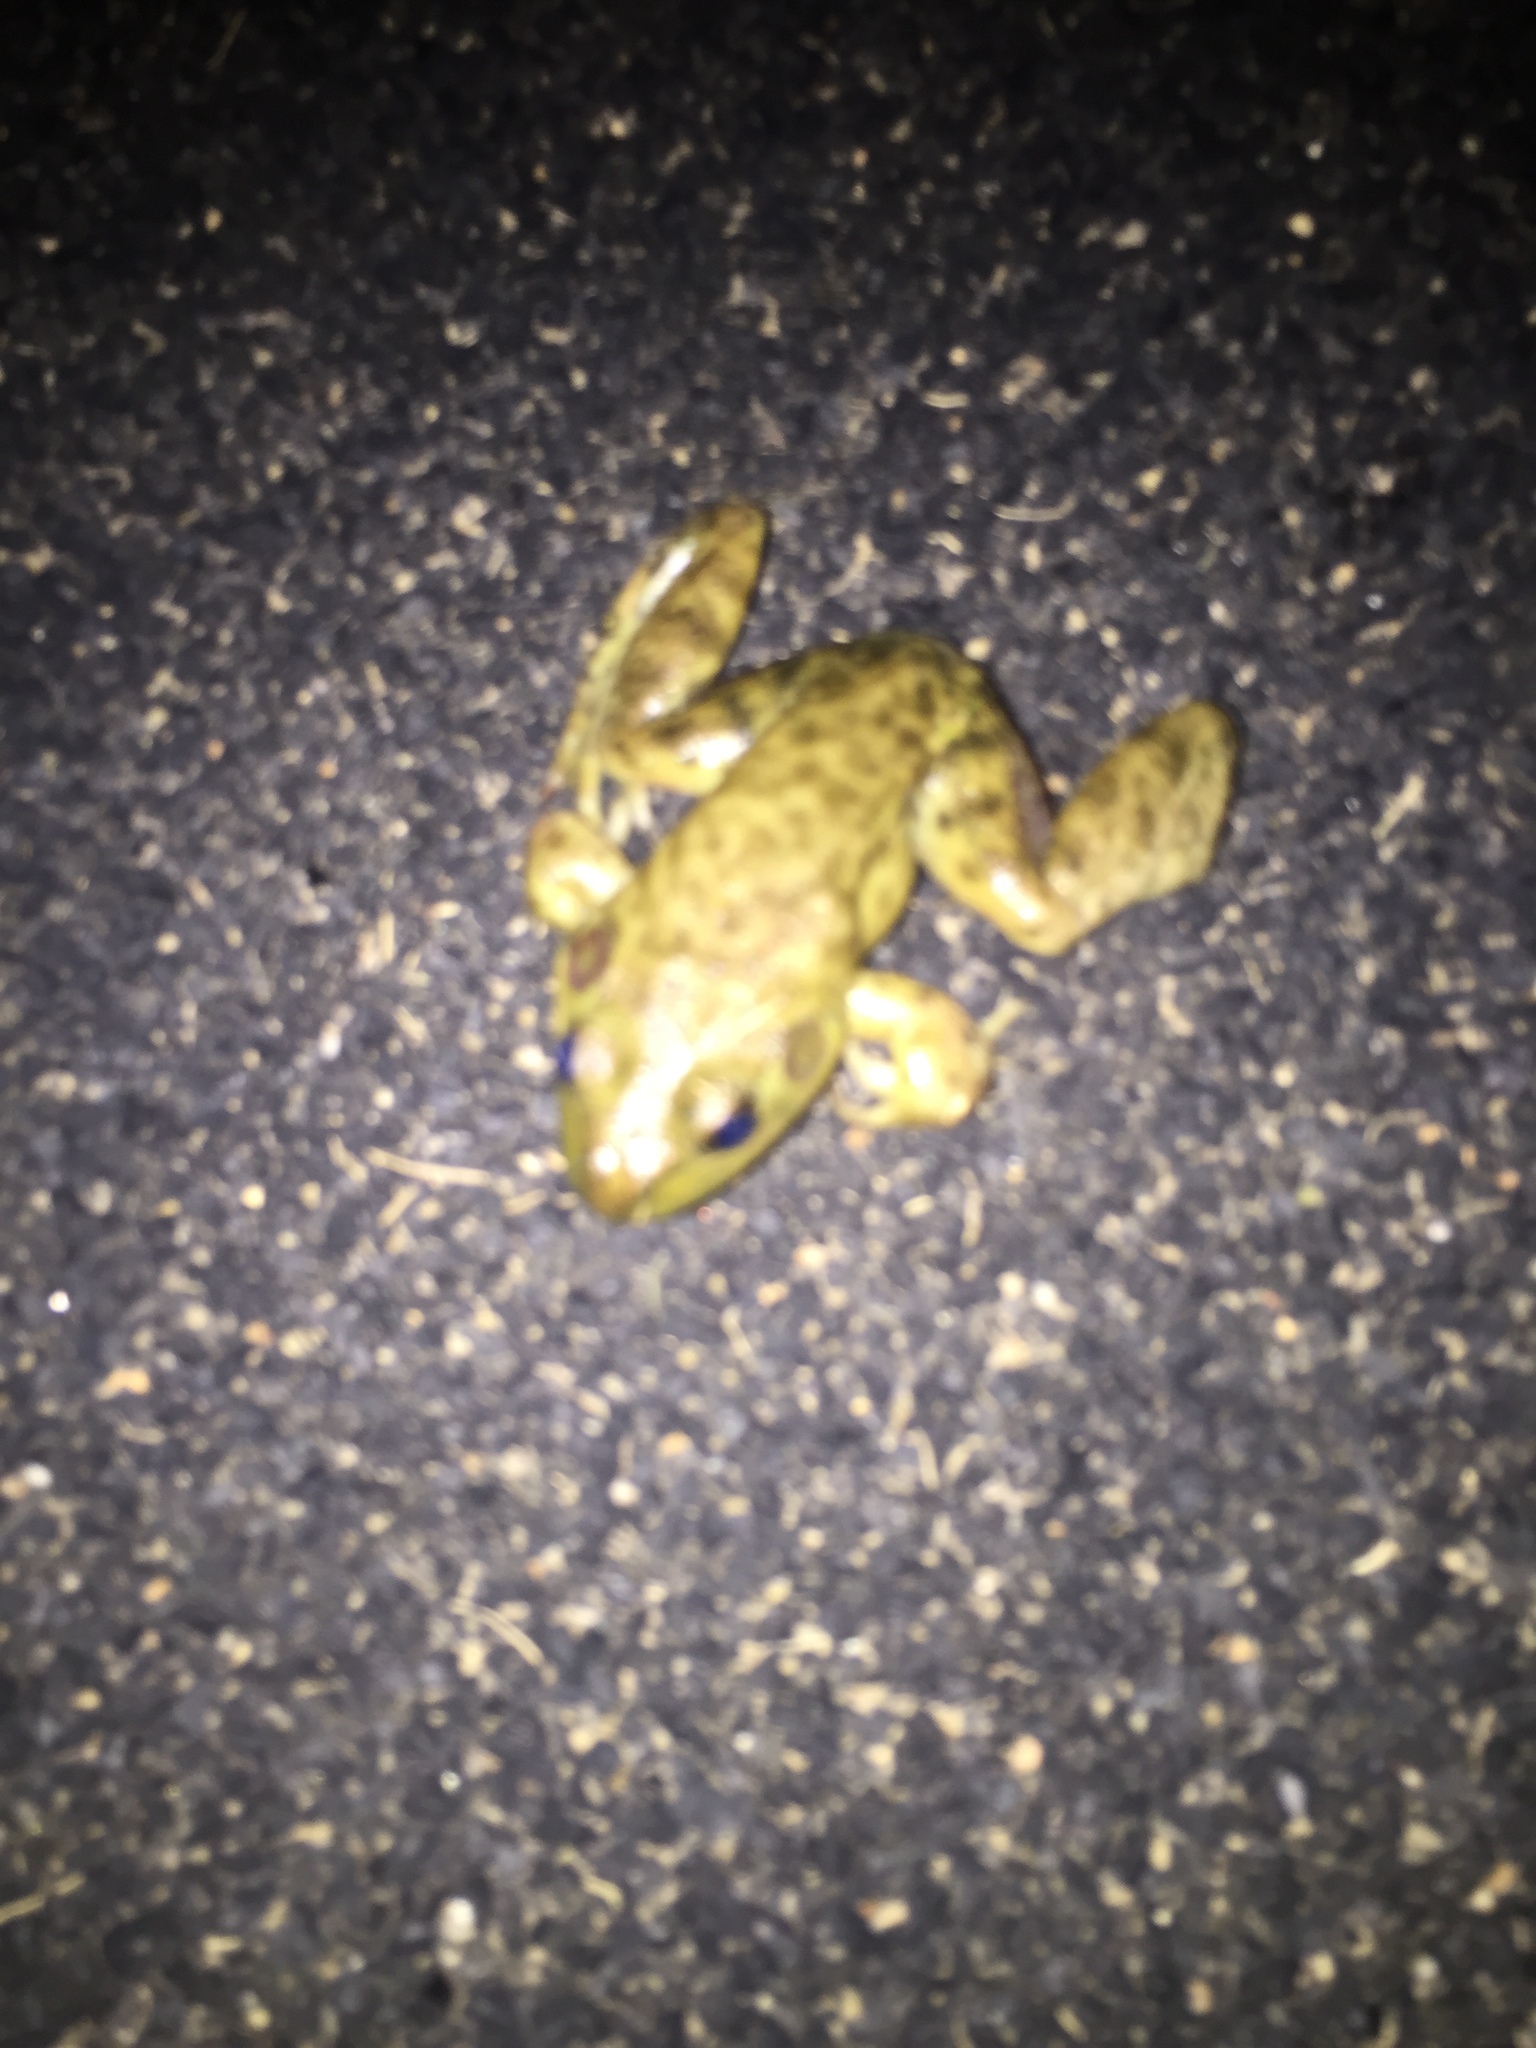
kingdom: Animalia
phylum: Chordata
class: Amphibia
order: Anura
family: Ranidae
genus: Lithobates
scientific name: Lithobates catesbeianus
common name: American bullfrog
